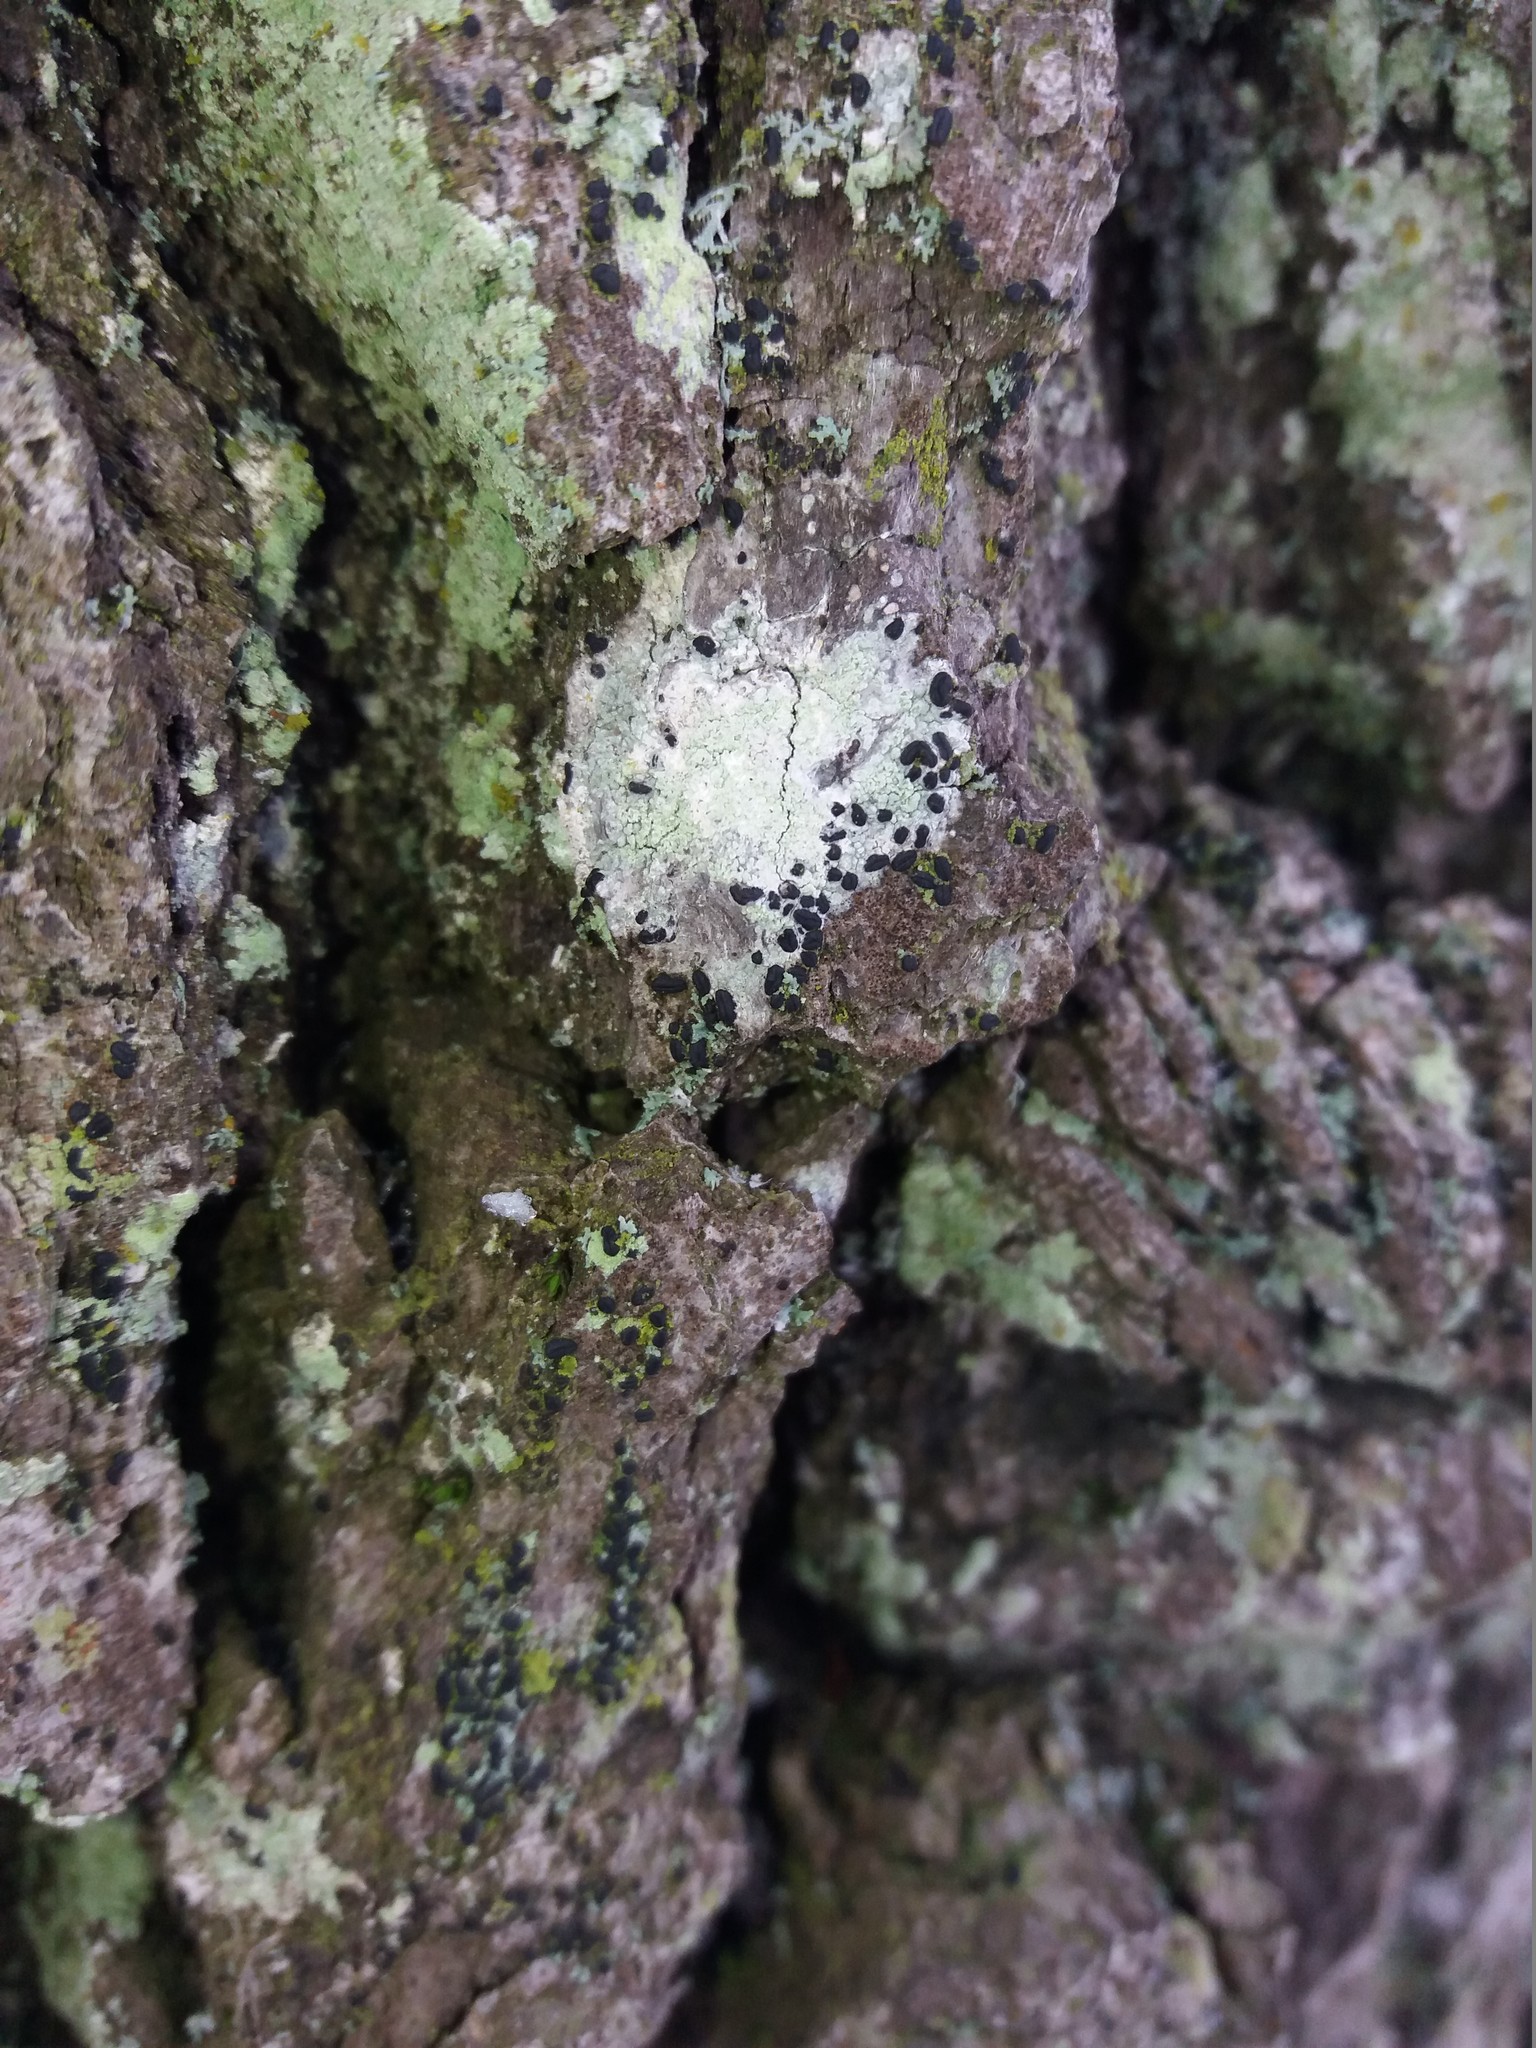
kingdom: Fungi
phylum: Ascomycota
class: Lecanoromycetes
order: Ostropales
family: Phlyctidaceae
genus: Phlyctis
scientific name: Phlyctis argena
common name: Whitewash lichen
